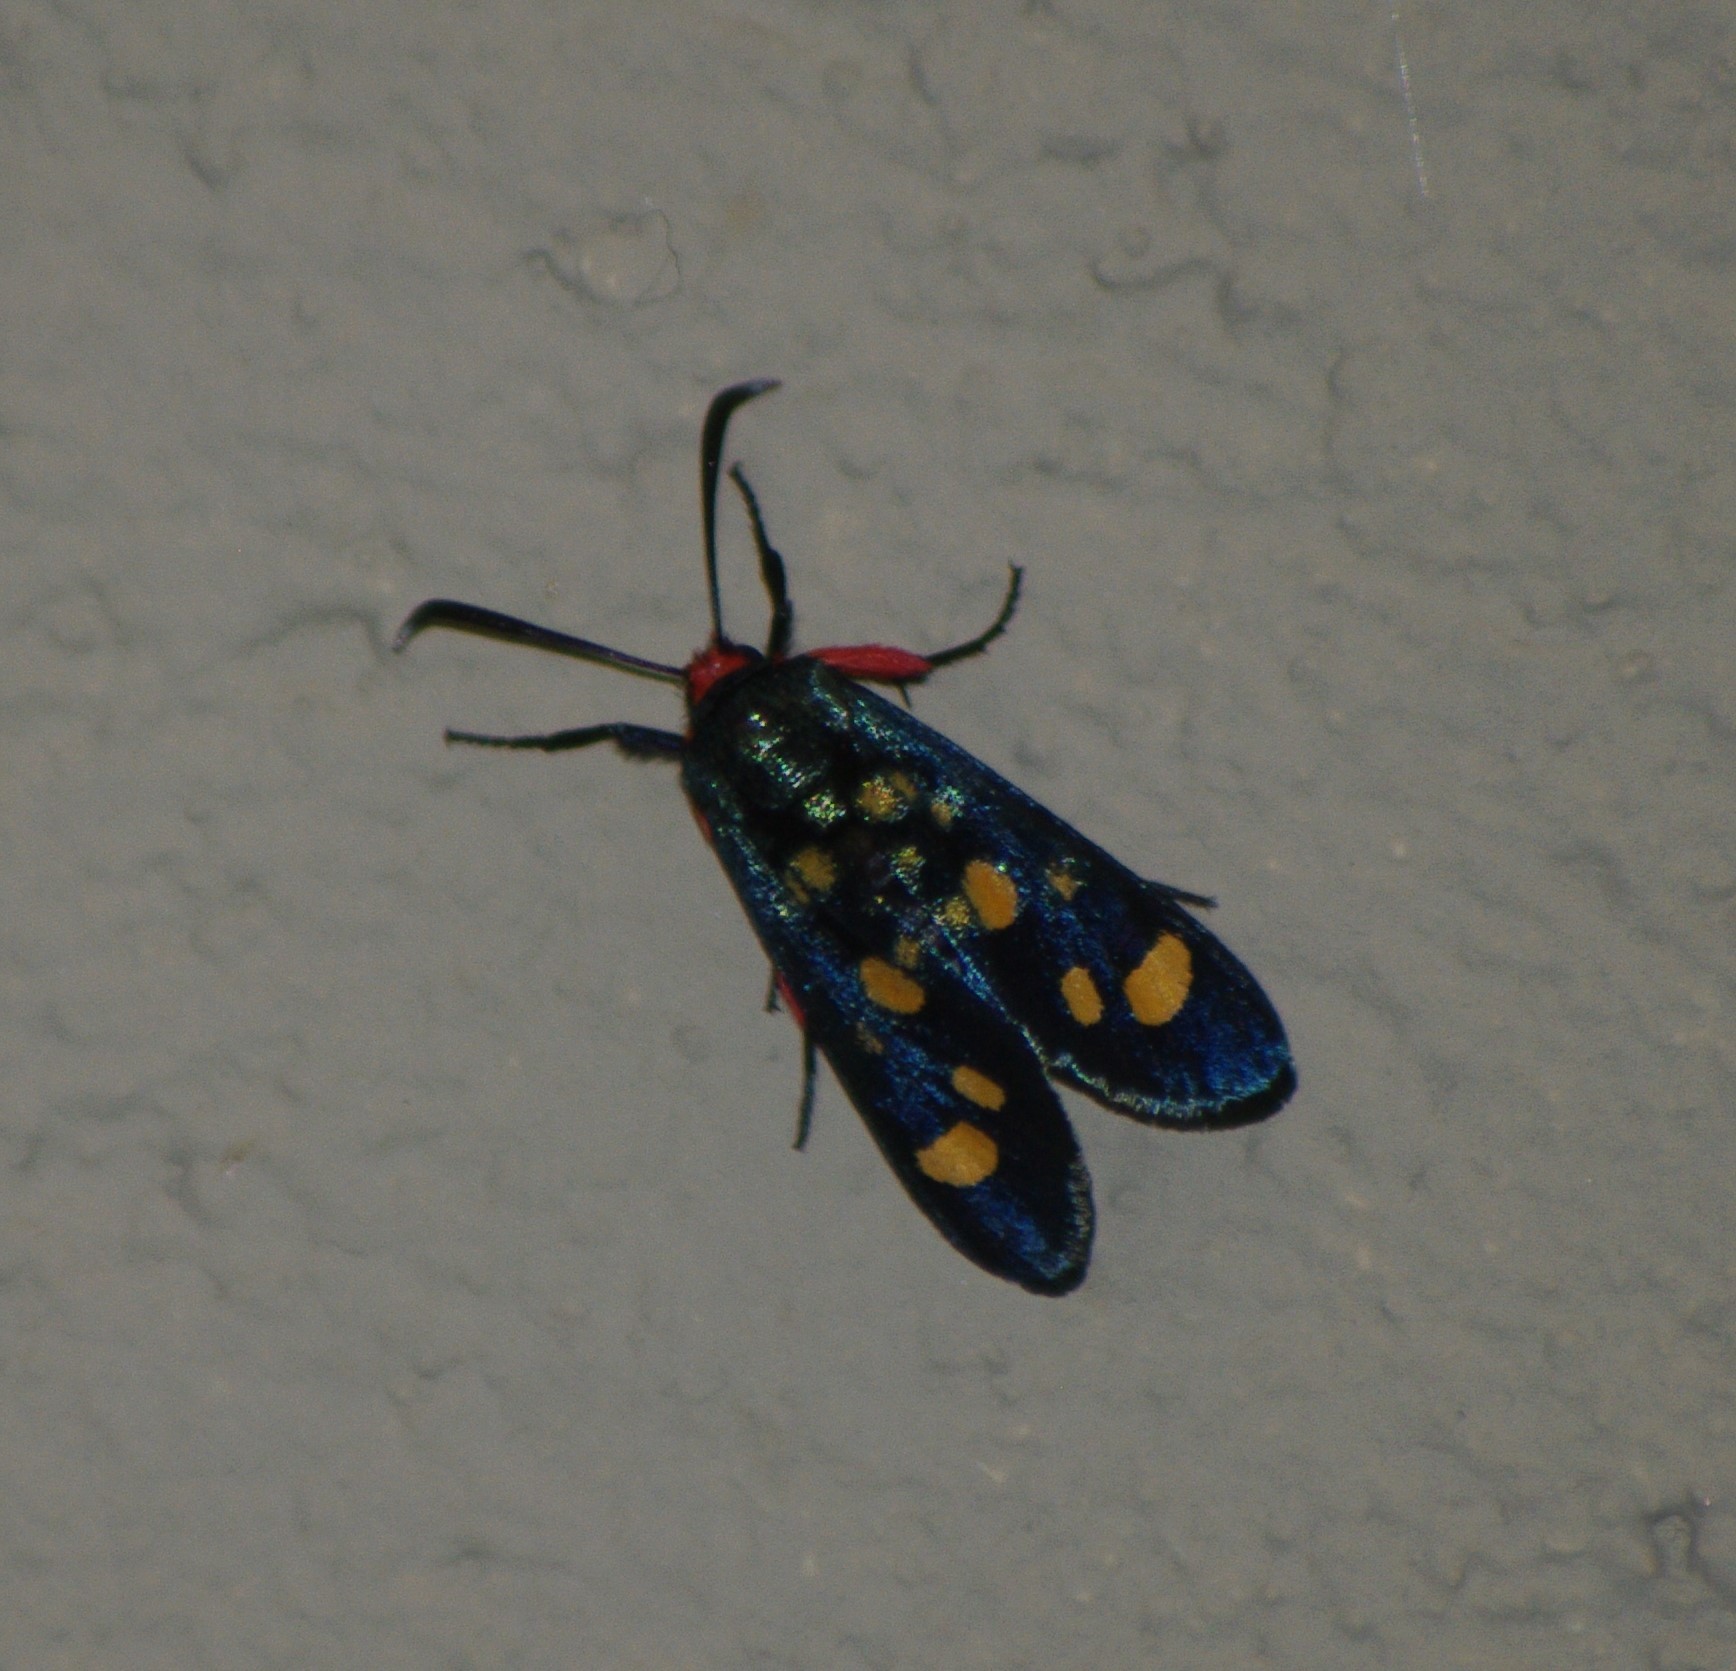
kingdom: Animalia
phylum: Arthropoda
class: Insecta
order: Lepidoptera
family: Thyrididae
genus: Arniocera
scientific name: Arniocera auriguttata
